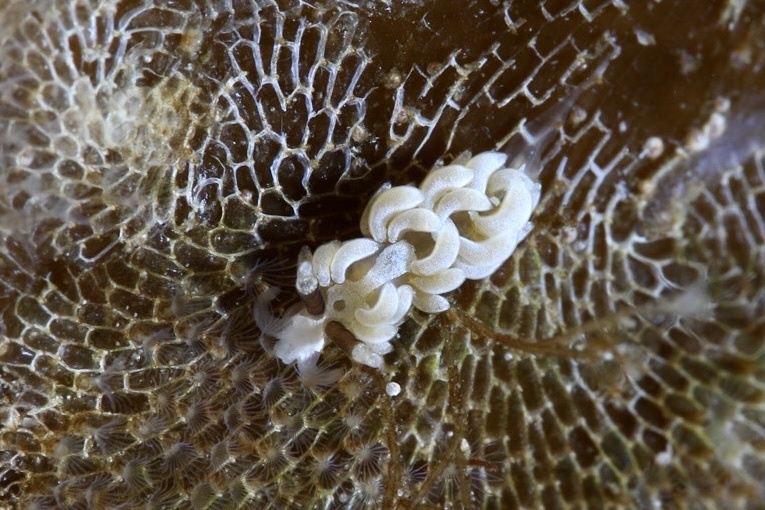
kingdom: Animalia
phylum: Mollusca
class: Gastropoda
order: Nudibranchia
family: Facelinidae
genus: Favorinus
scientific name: Favorinus branchialis
